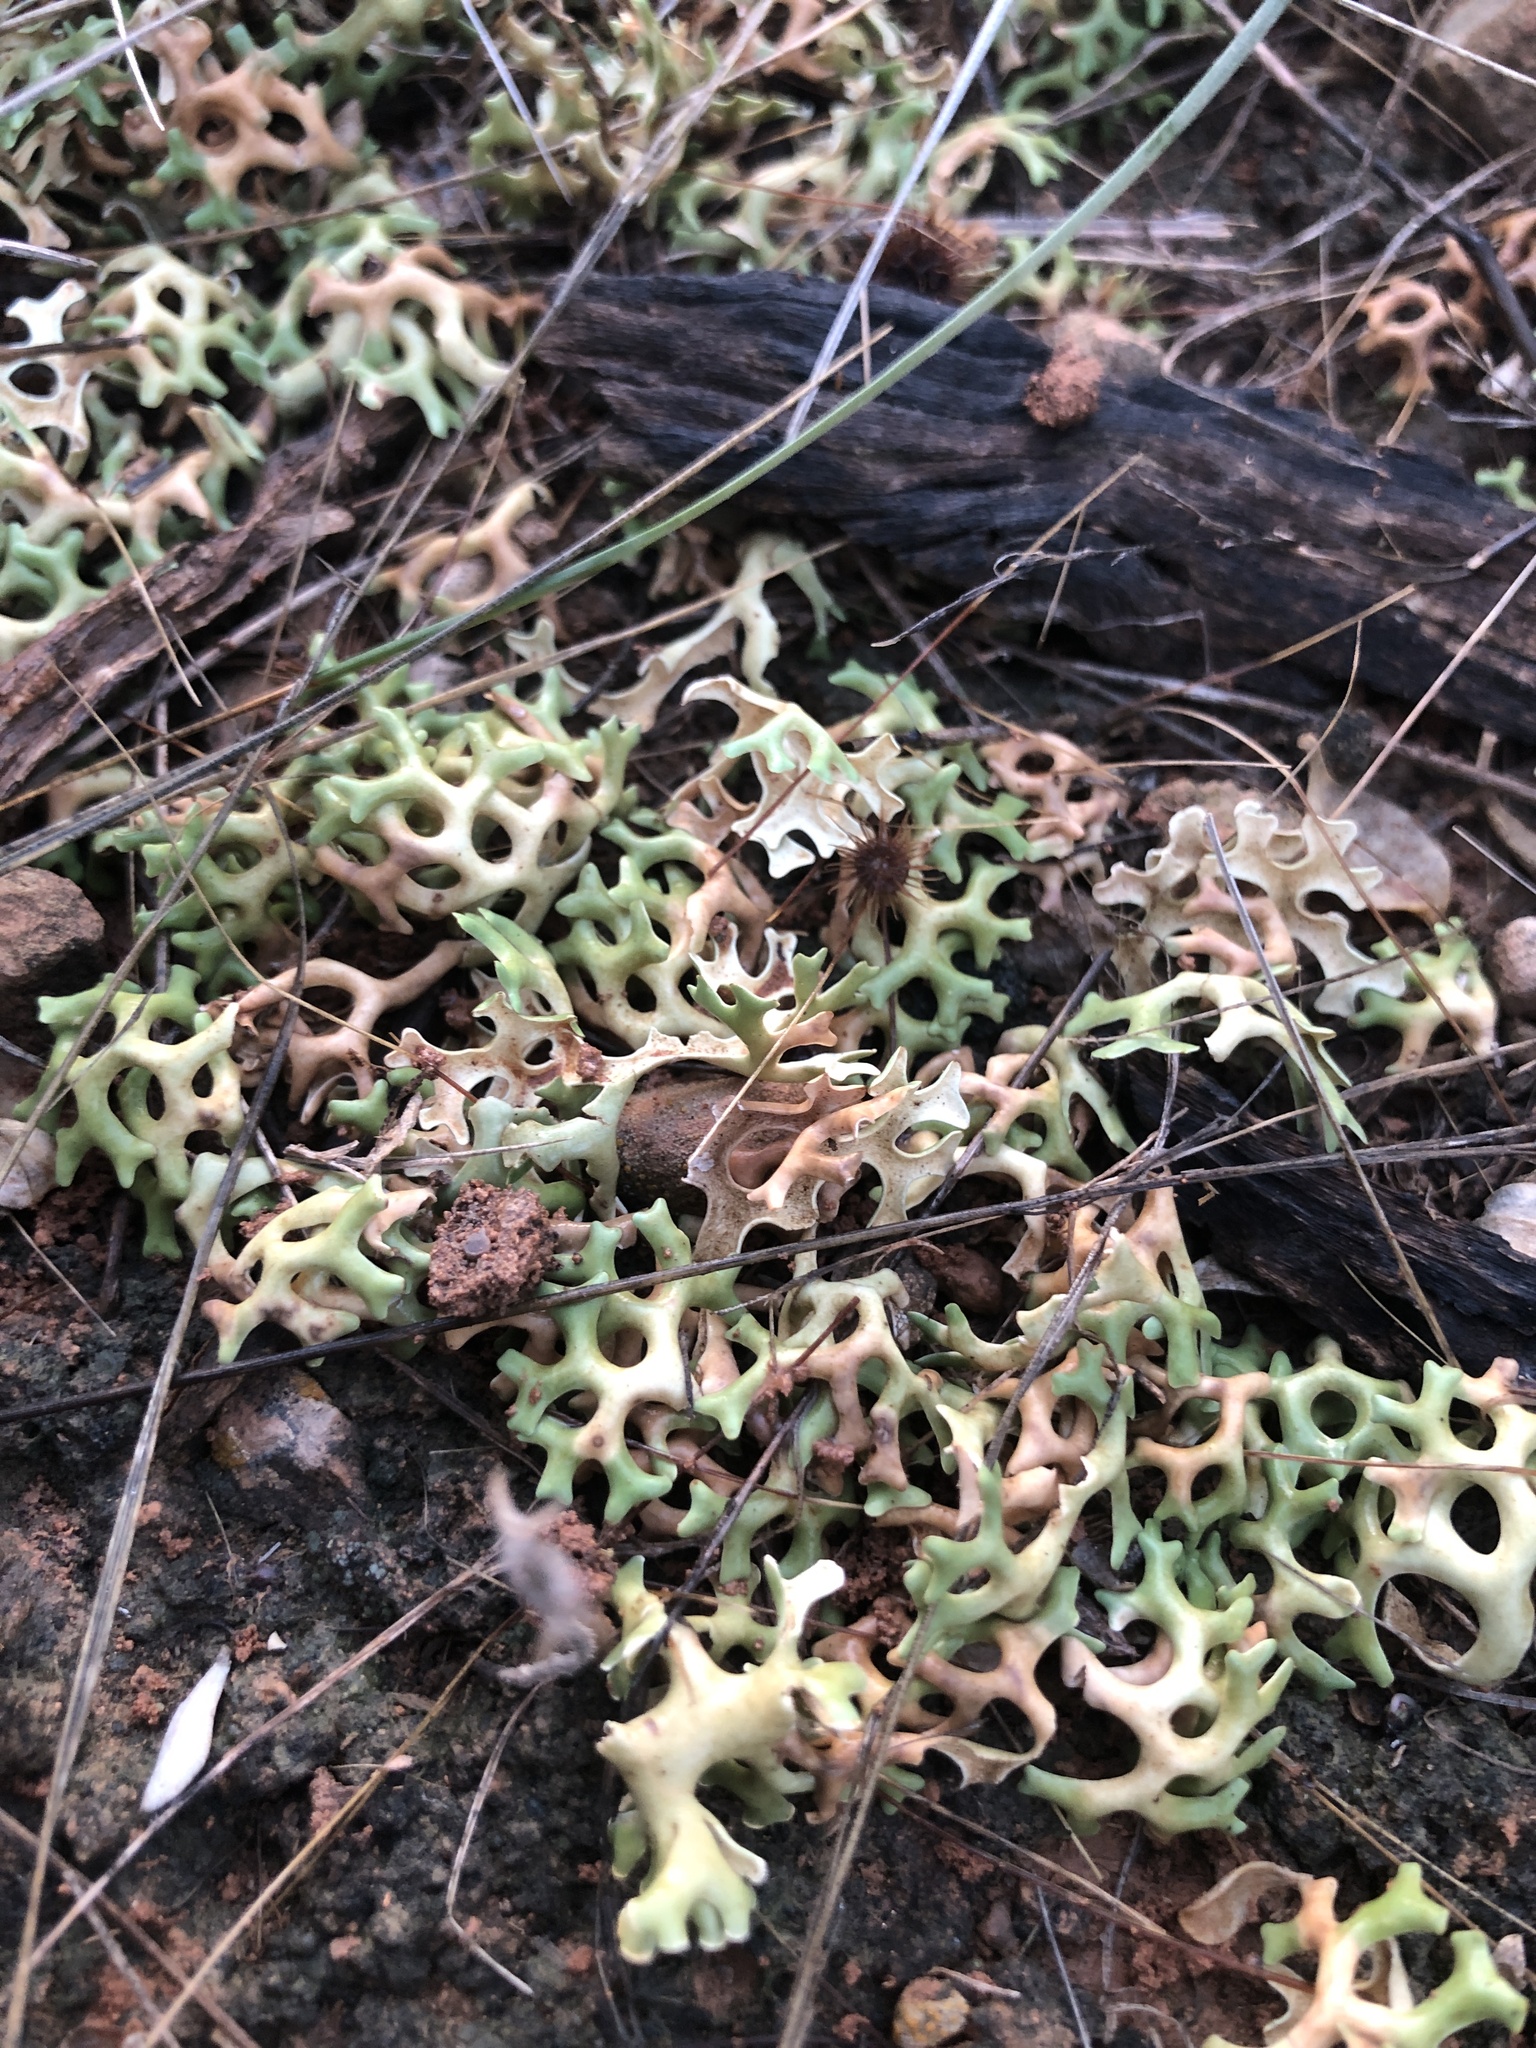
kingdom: Fungi
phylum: Ascomycota
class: Lecanoromycetes
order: Lecanorales
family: Parmeliaceae
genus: Xanthoparmelia
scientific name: Xanthoparmelia semiviridis
